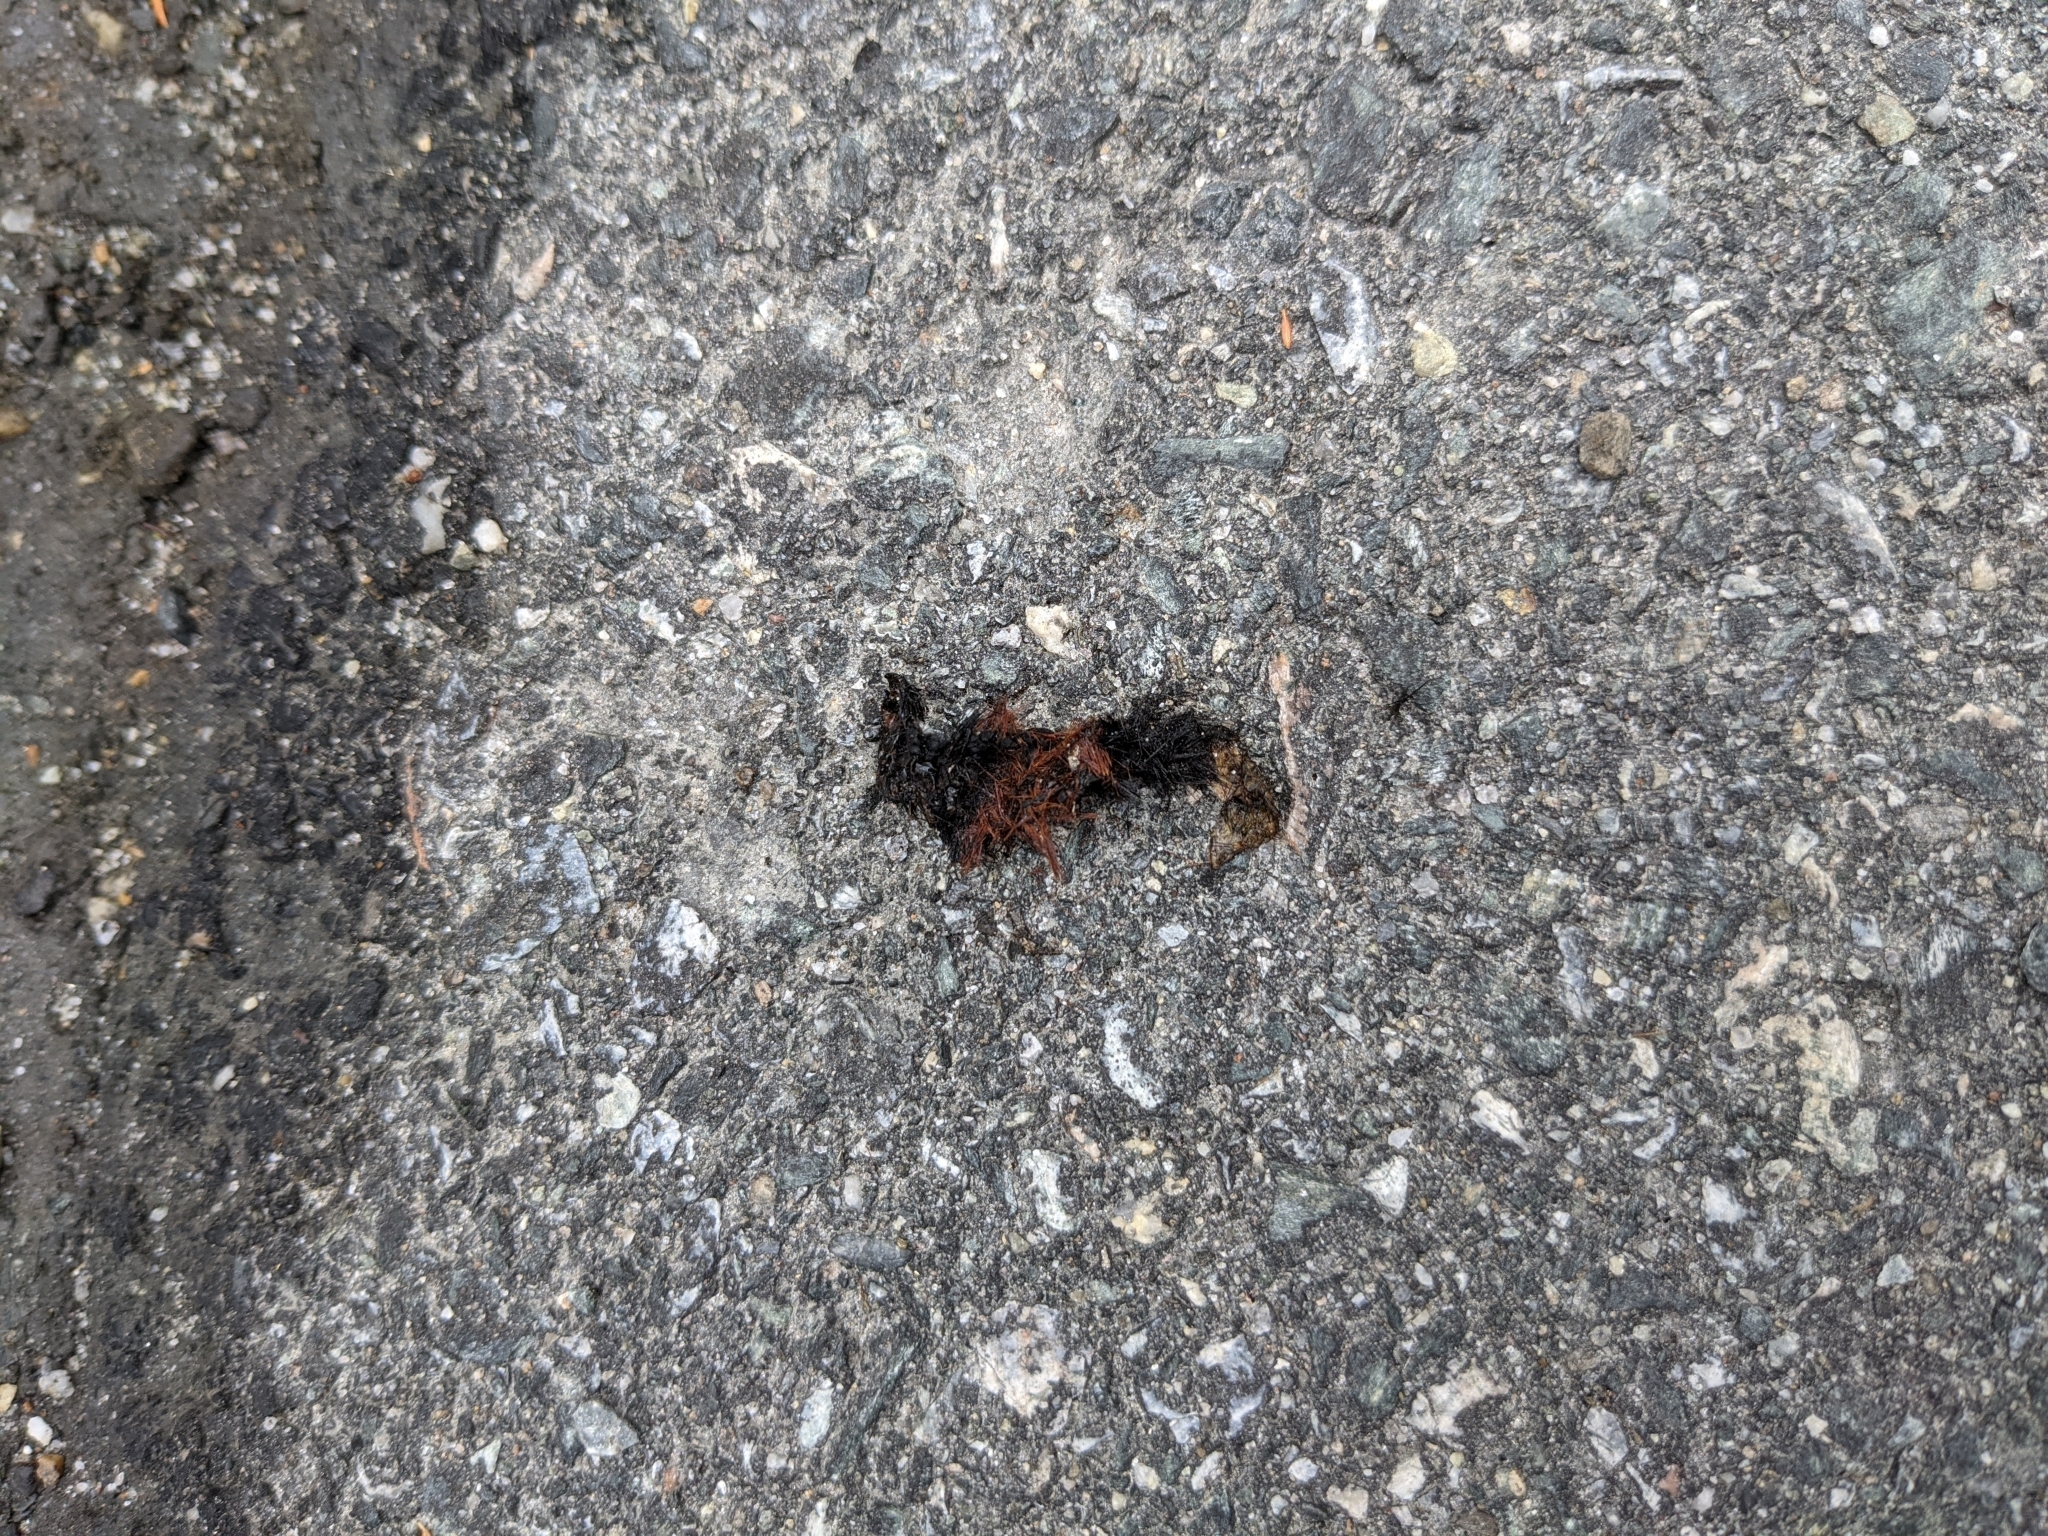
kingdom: Animalia
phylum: Arthropoda
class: Insecta
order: Lepidoptera
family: Erebidae
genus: Pyrrharctia
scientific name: Pyrrharctia isabella
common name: Isabella tiger moth
